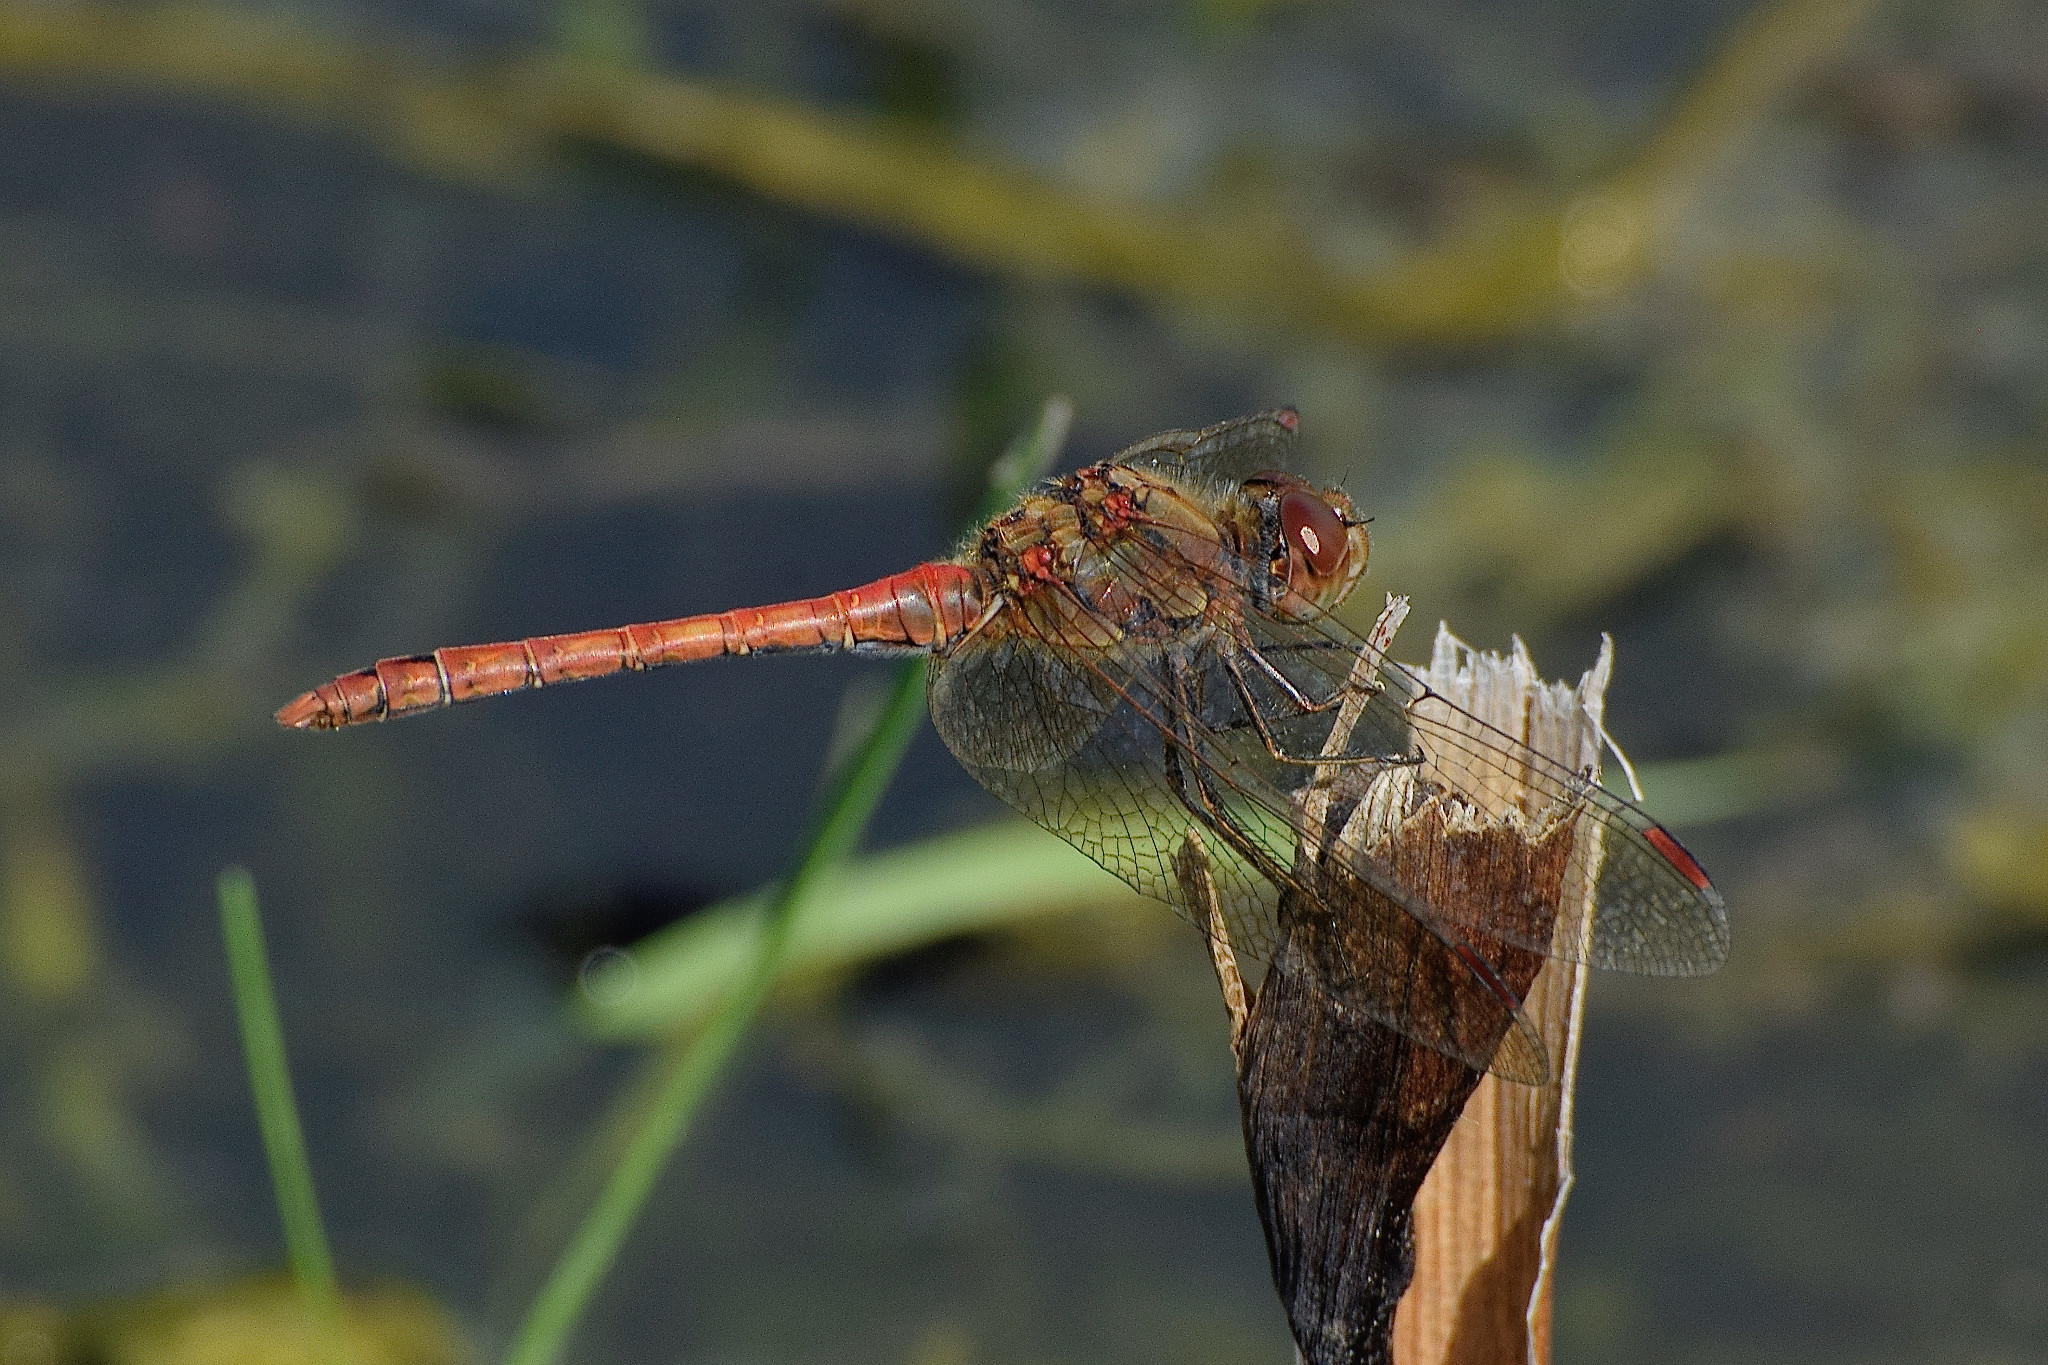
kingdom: Animalia
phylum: Arthropoda
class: Insecta
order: Odonata
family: Libellulidae
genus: Sympetrum
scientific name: Sympetrum striolatum
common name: Common darter
